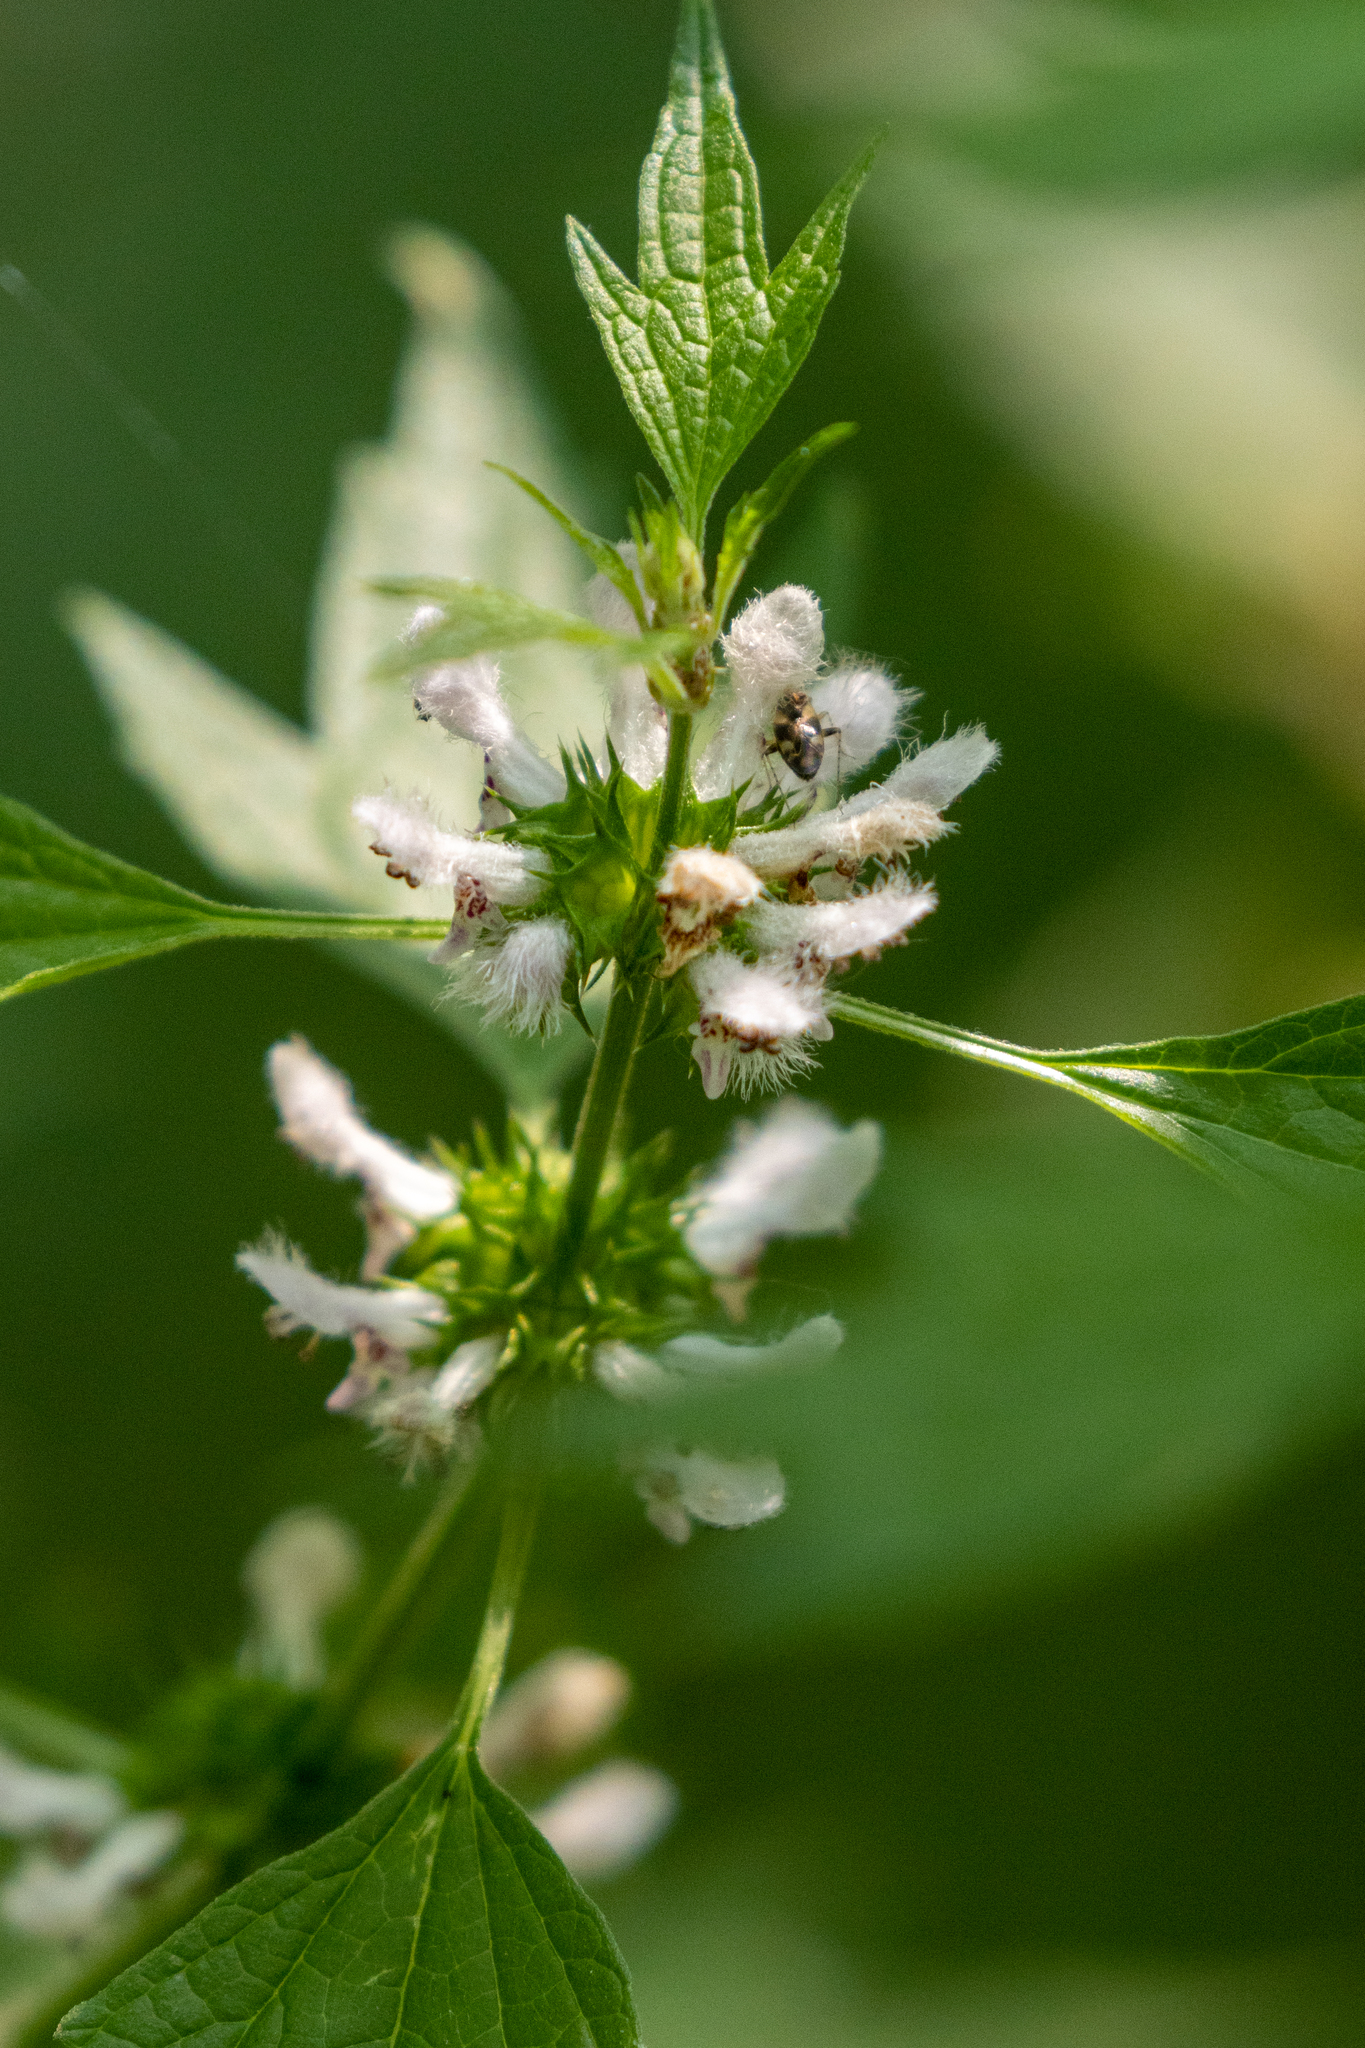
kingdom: Plantae
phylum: Tracheophyta
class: Magnoliopsida
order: Lamiales
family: Lamiaceae
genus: Leonurus
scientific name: Leonurus cardiaca
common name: Motherwort
